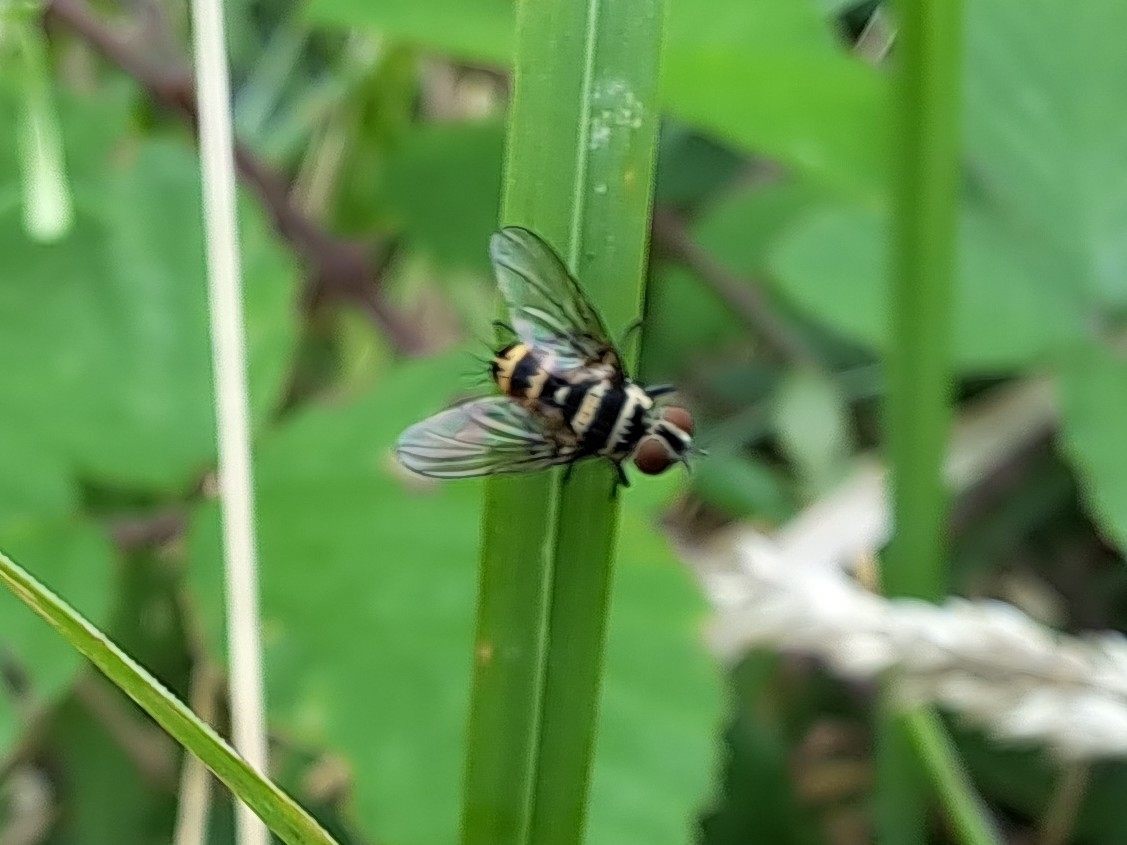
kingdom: Animalia
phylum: Arthropoda
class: Insecta
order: Diptera
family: Tachinidae
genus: Trigonospila
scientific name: Trigonospila brevifacies
